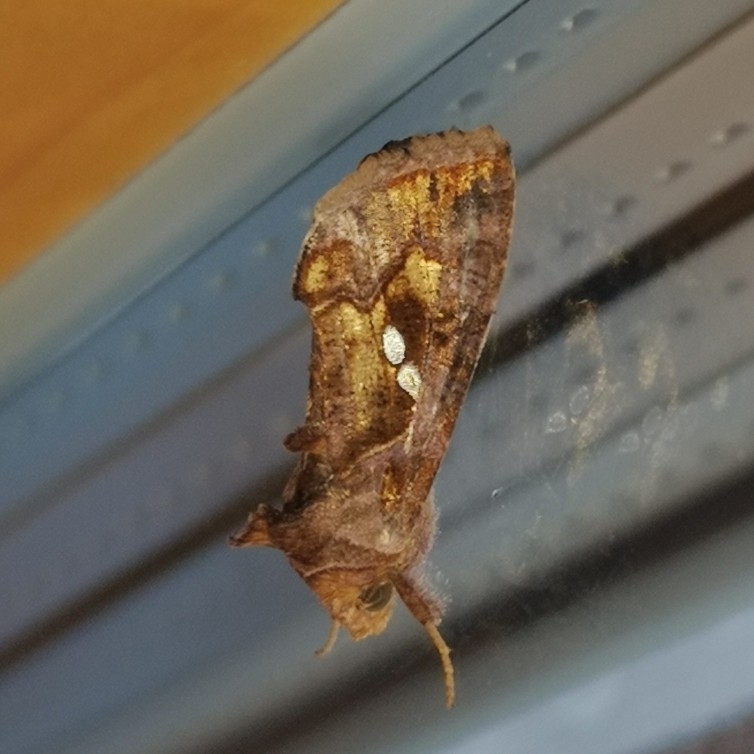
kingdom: Animalia
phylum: Arthropoda
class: Insecta
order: Lepidoptera
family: Noctuidae
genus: Chrysodeixis
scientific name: Chrysodeixis chalcites
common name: Golden twin-spot
